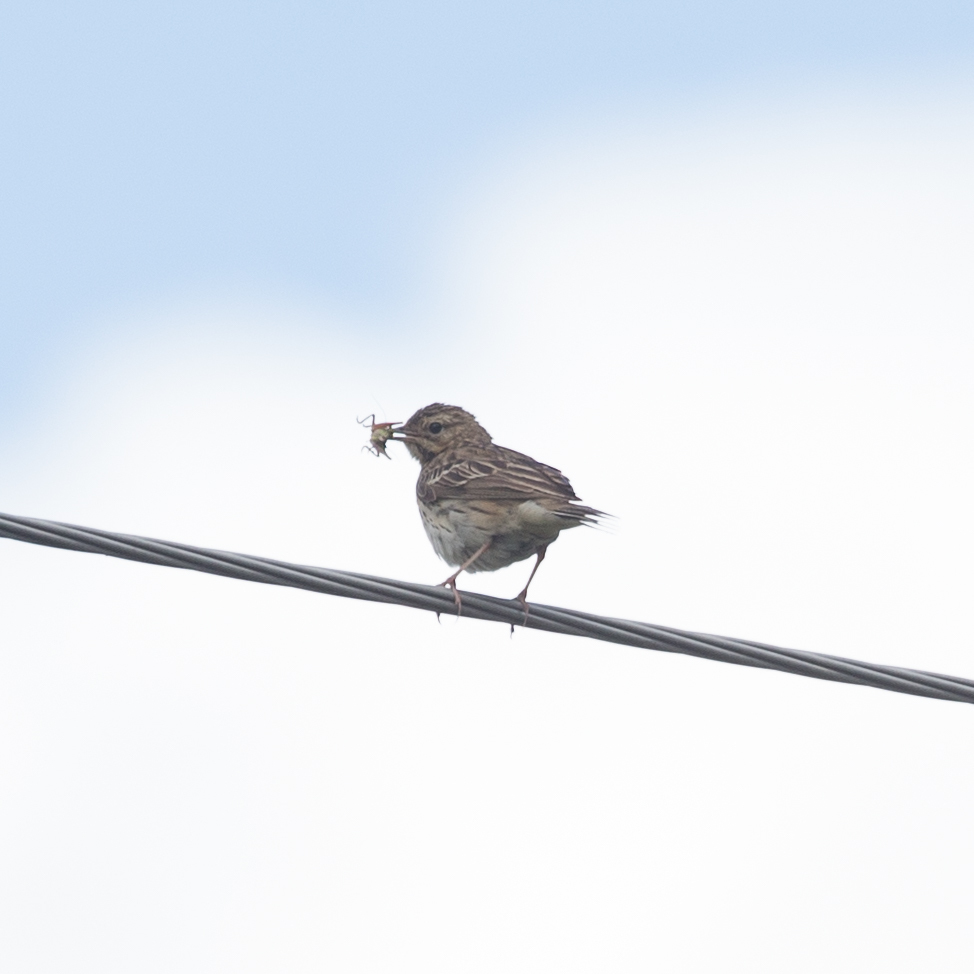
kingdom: Animalia
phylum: Chordata
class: Aves
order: Passeriformes
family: Motacillidae
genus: Anthus
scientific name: Anthus trivialis
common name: Tree pipit
